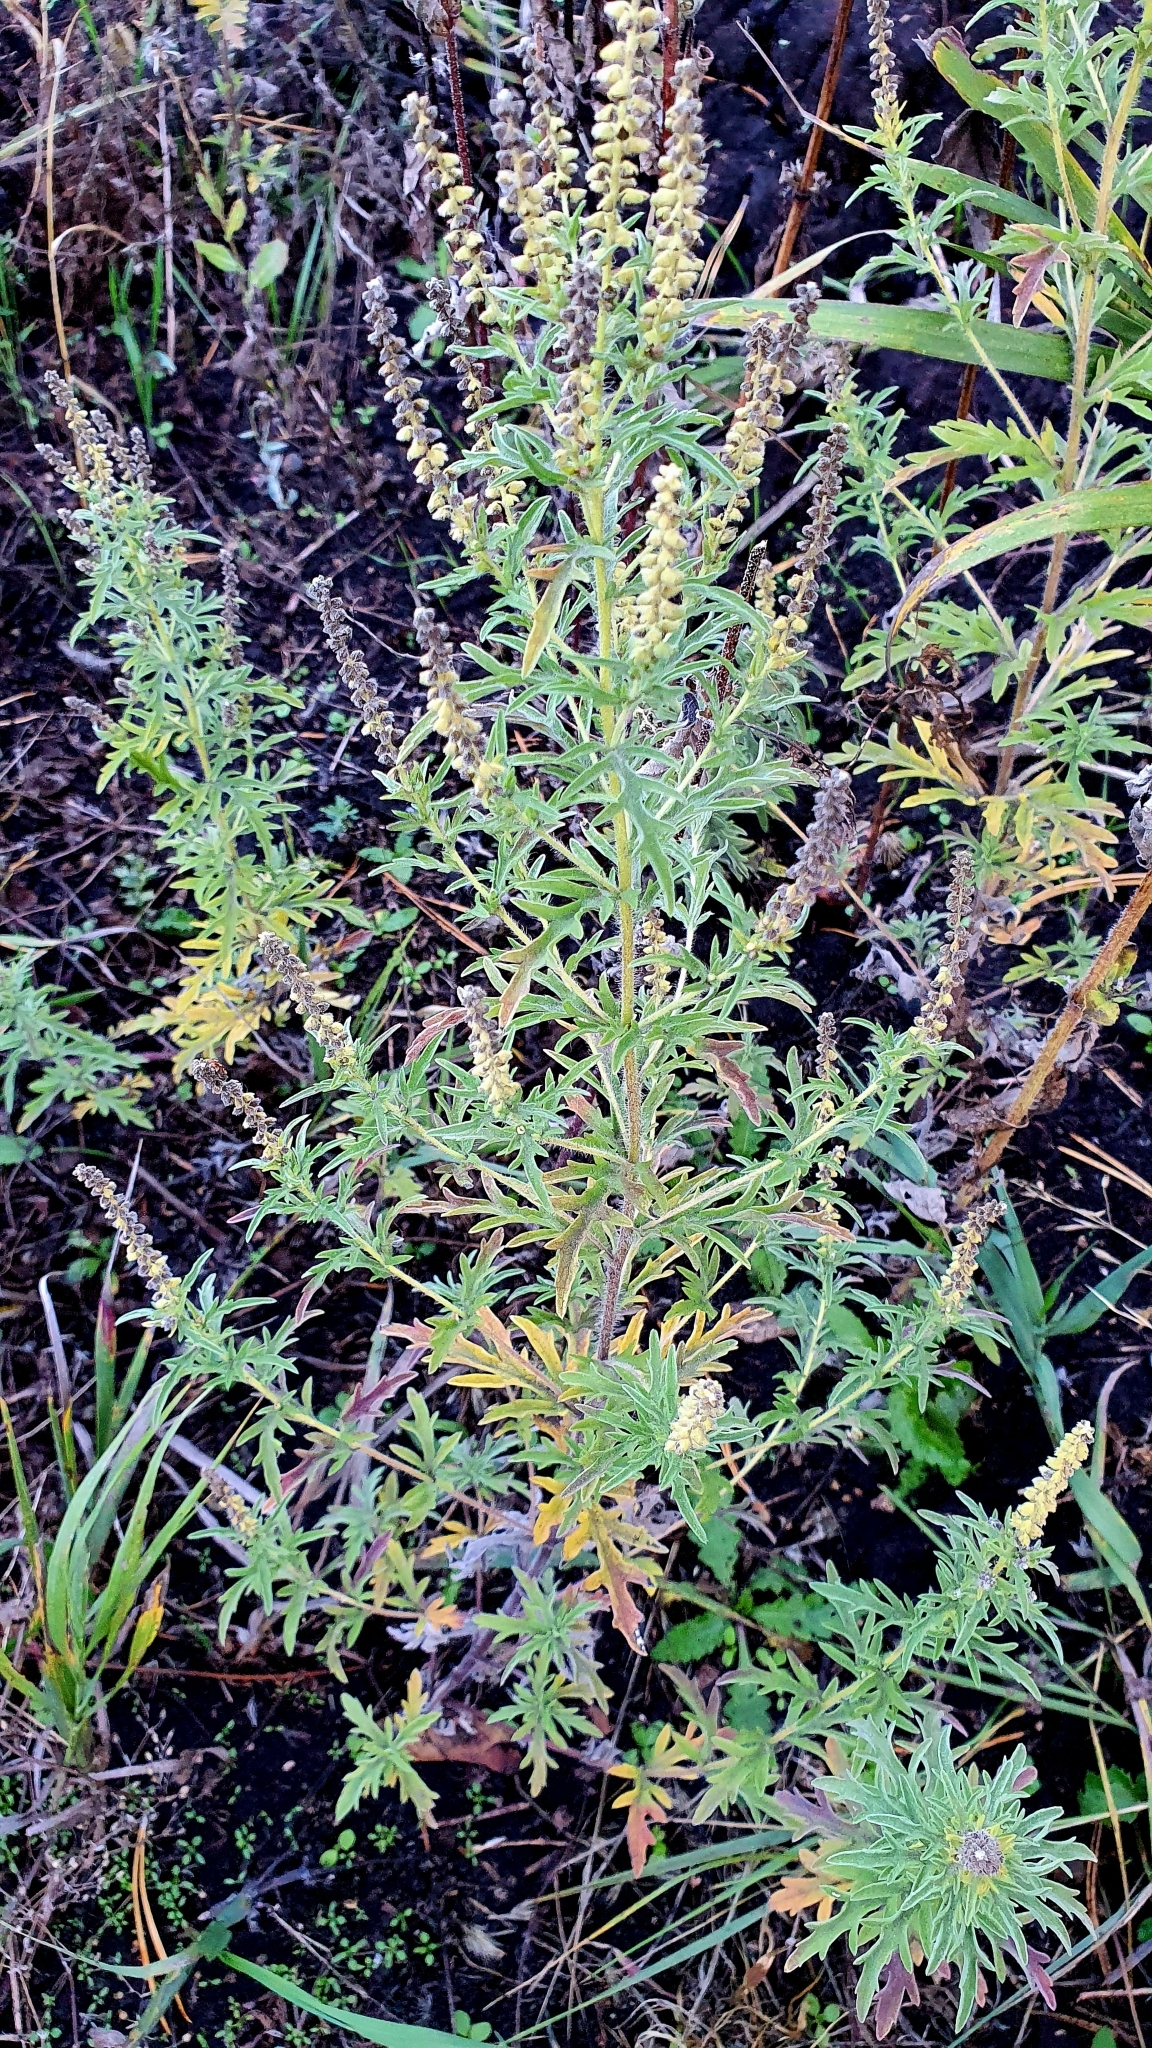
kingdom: Plantae
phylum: Tracheophyta
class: Magnoliopsida
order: Asterales
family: Asteraceae
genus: Ambrosia
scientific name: Ambrosia artemisiifolia
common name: Annual ragweed
